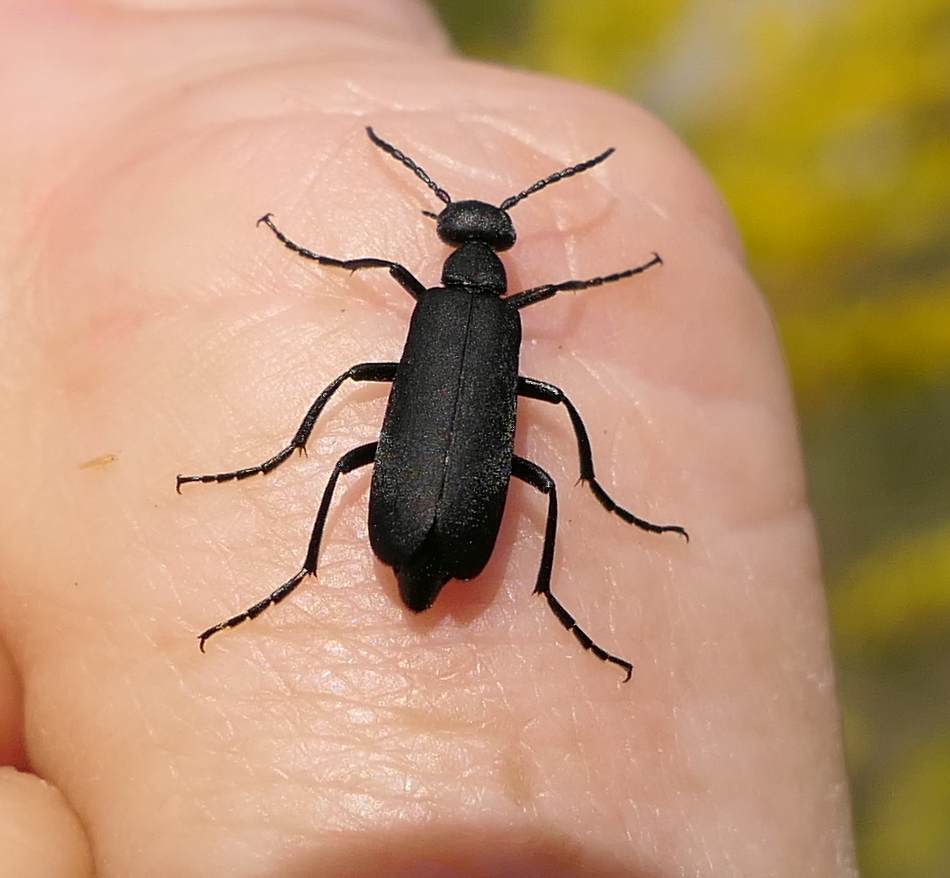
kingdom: Animalia
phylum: Arthropoda
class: Insecta
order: Coleoptera
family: Meloidae
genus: Epicauta
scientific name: Epicauta pensylvanica
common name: Black blister beetle
